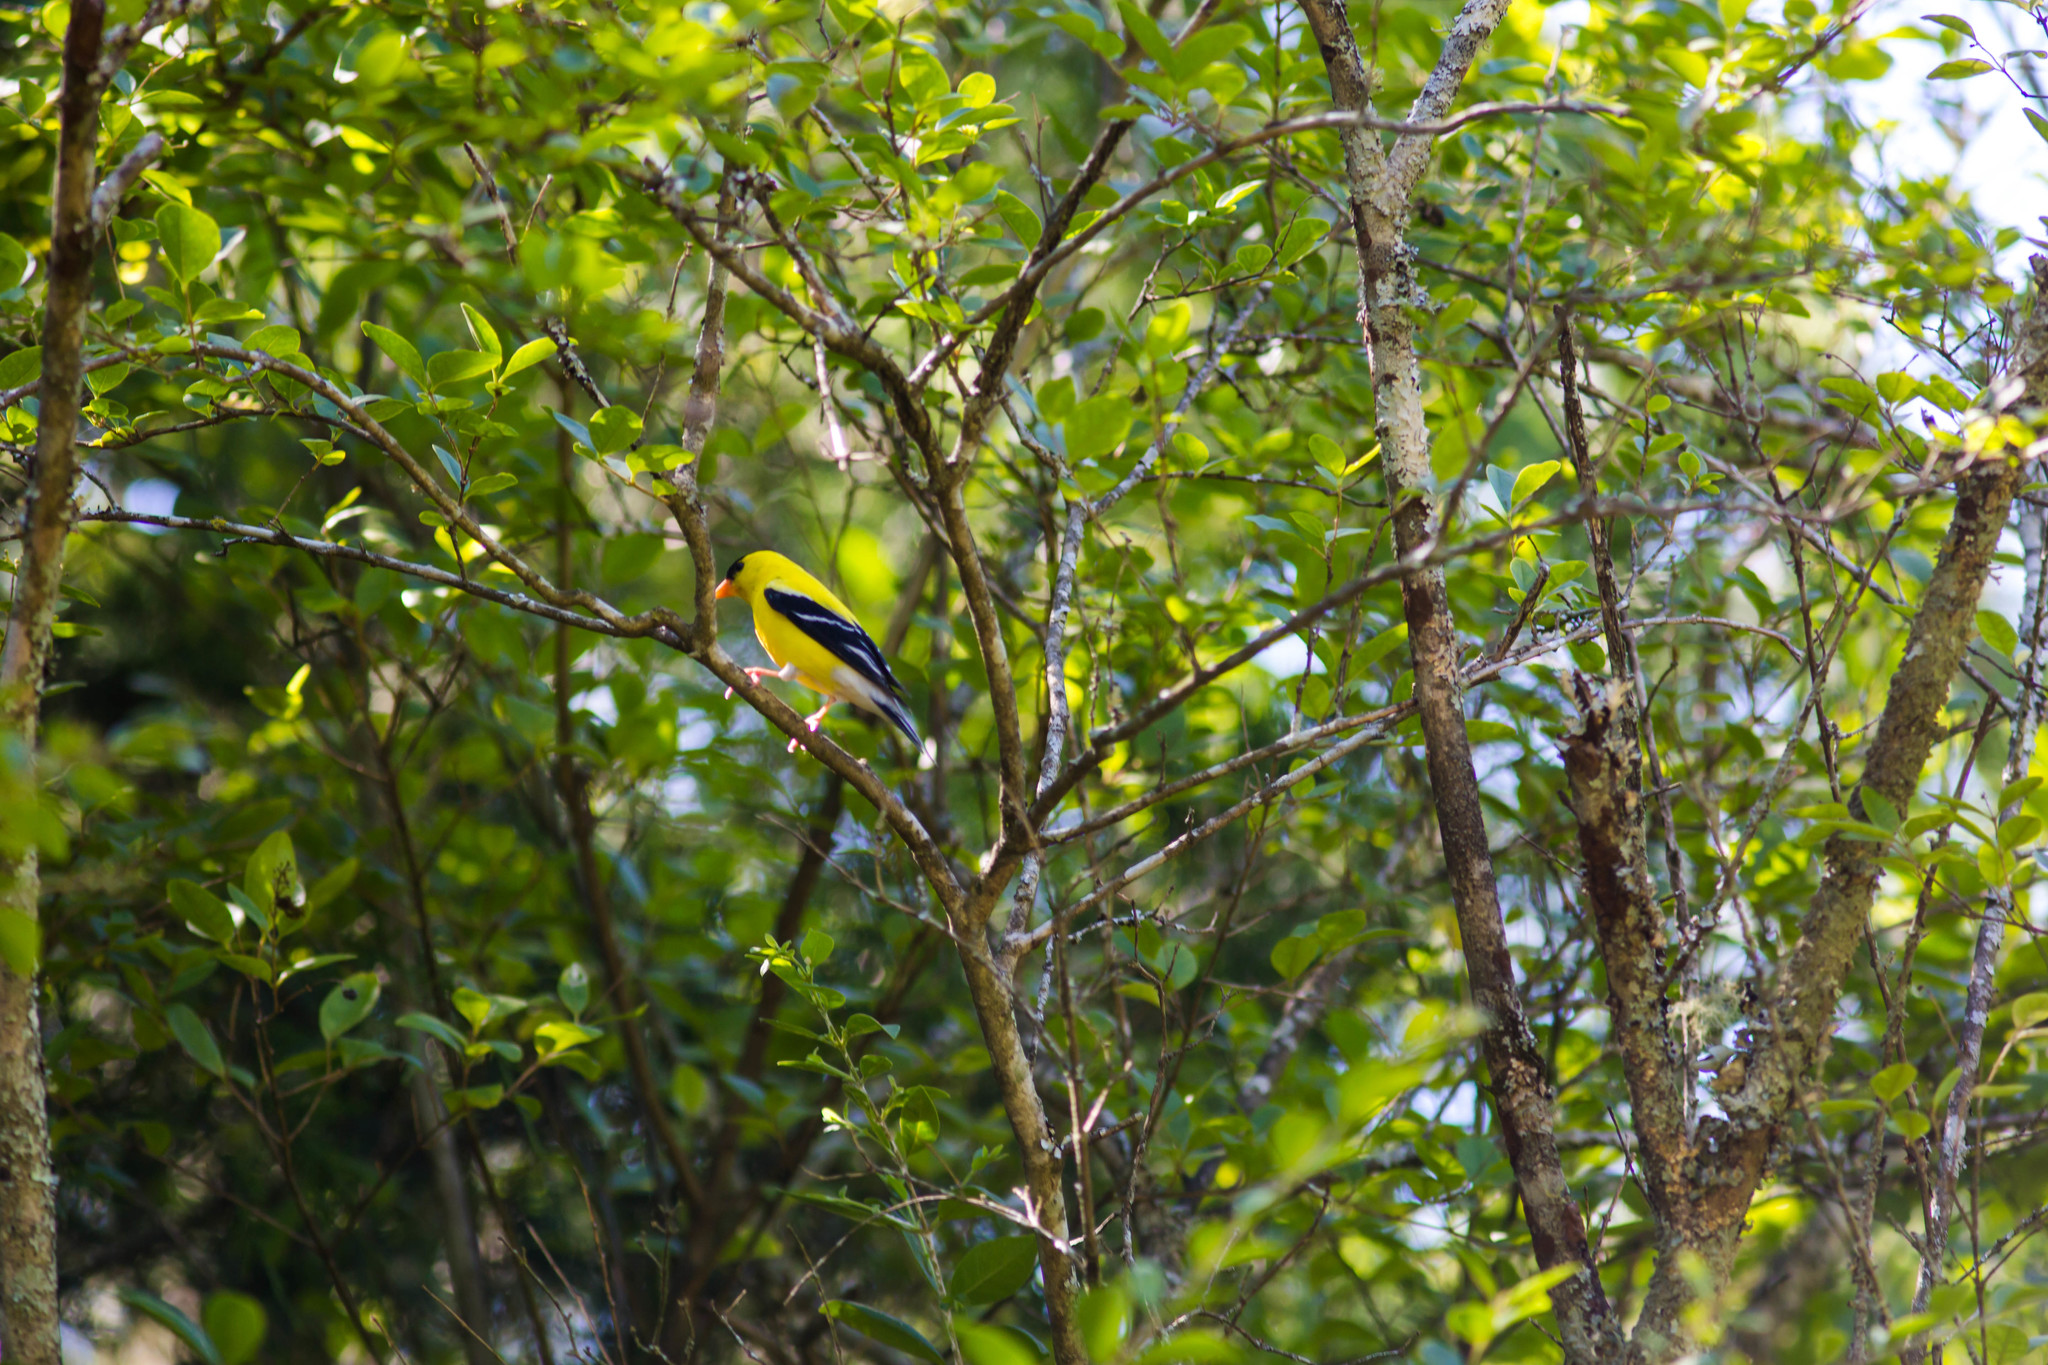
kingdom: Animalia
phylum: Chordata
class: Aves
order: Passeriformes
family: Fringillidae
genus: Spinus
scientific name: Spinus tristis
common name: American goldfinch
